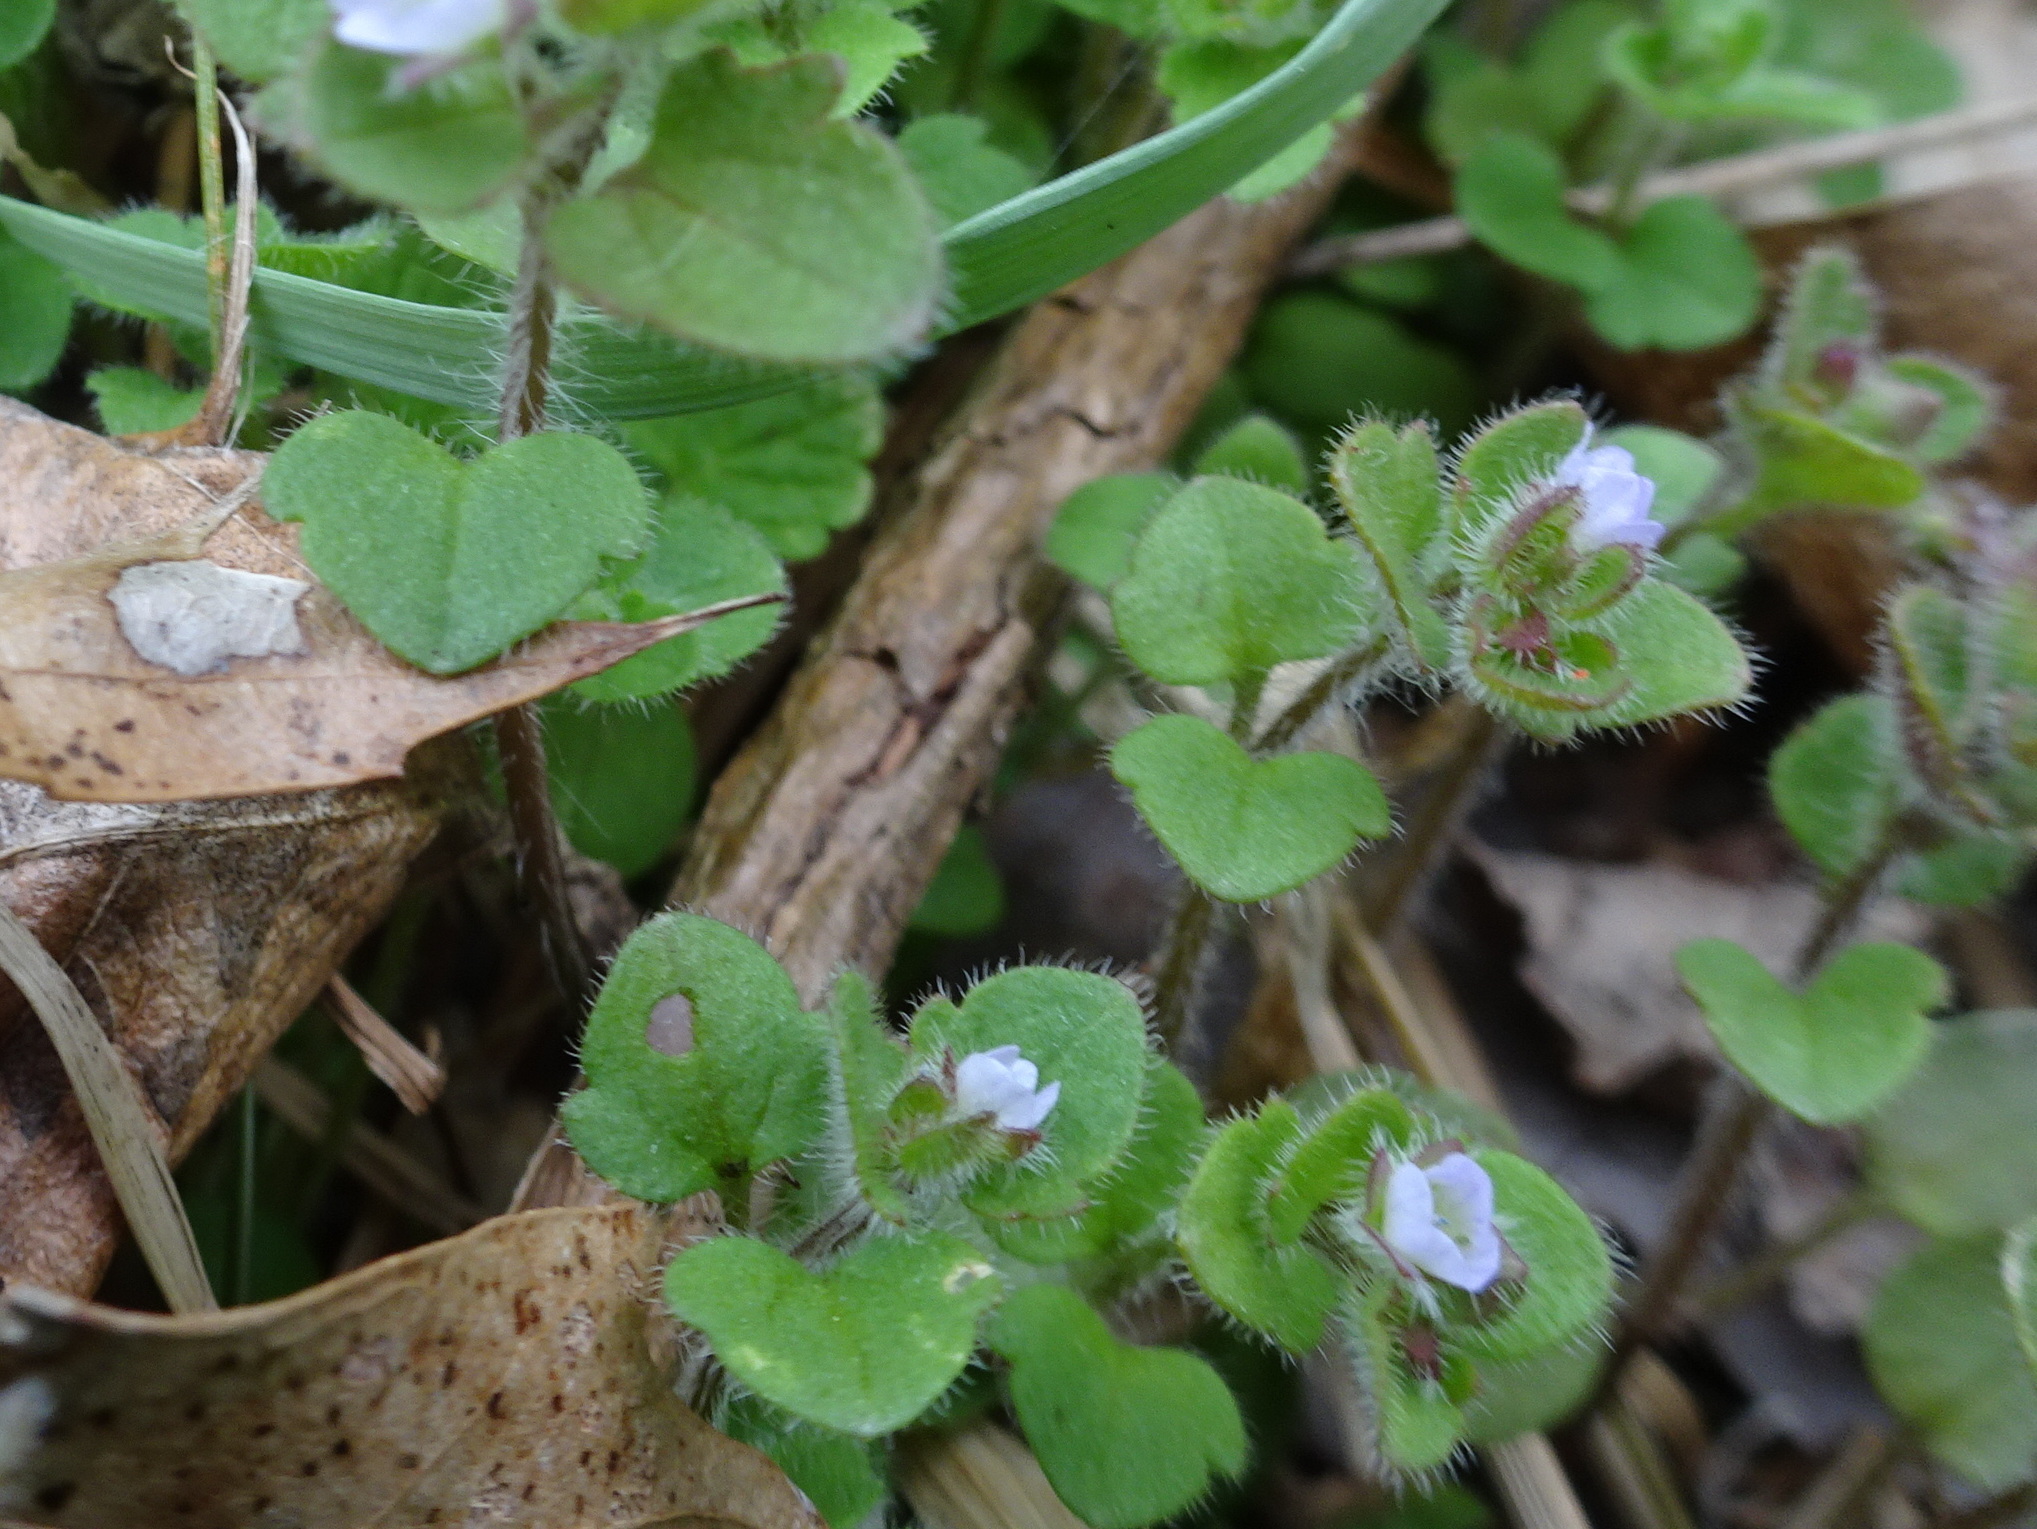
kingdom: Plantae
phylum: Tracheophyta
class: Magnoliopsida
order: Lamiales
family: Plantaginaceae
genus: Veronica
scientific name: Veronica hederifolia
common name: Ivy-leaved speedwell
